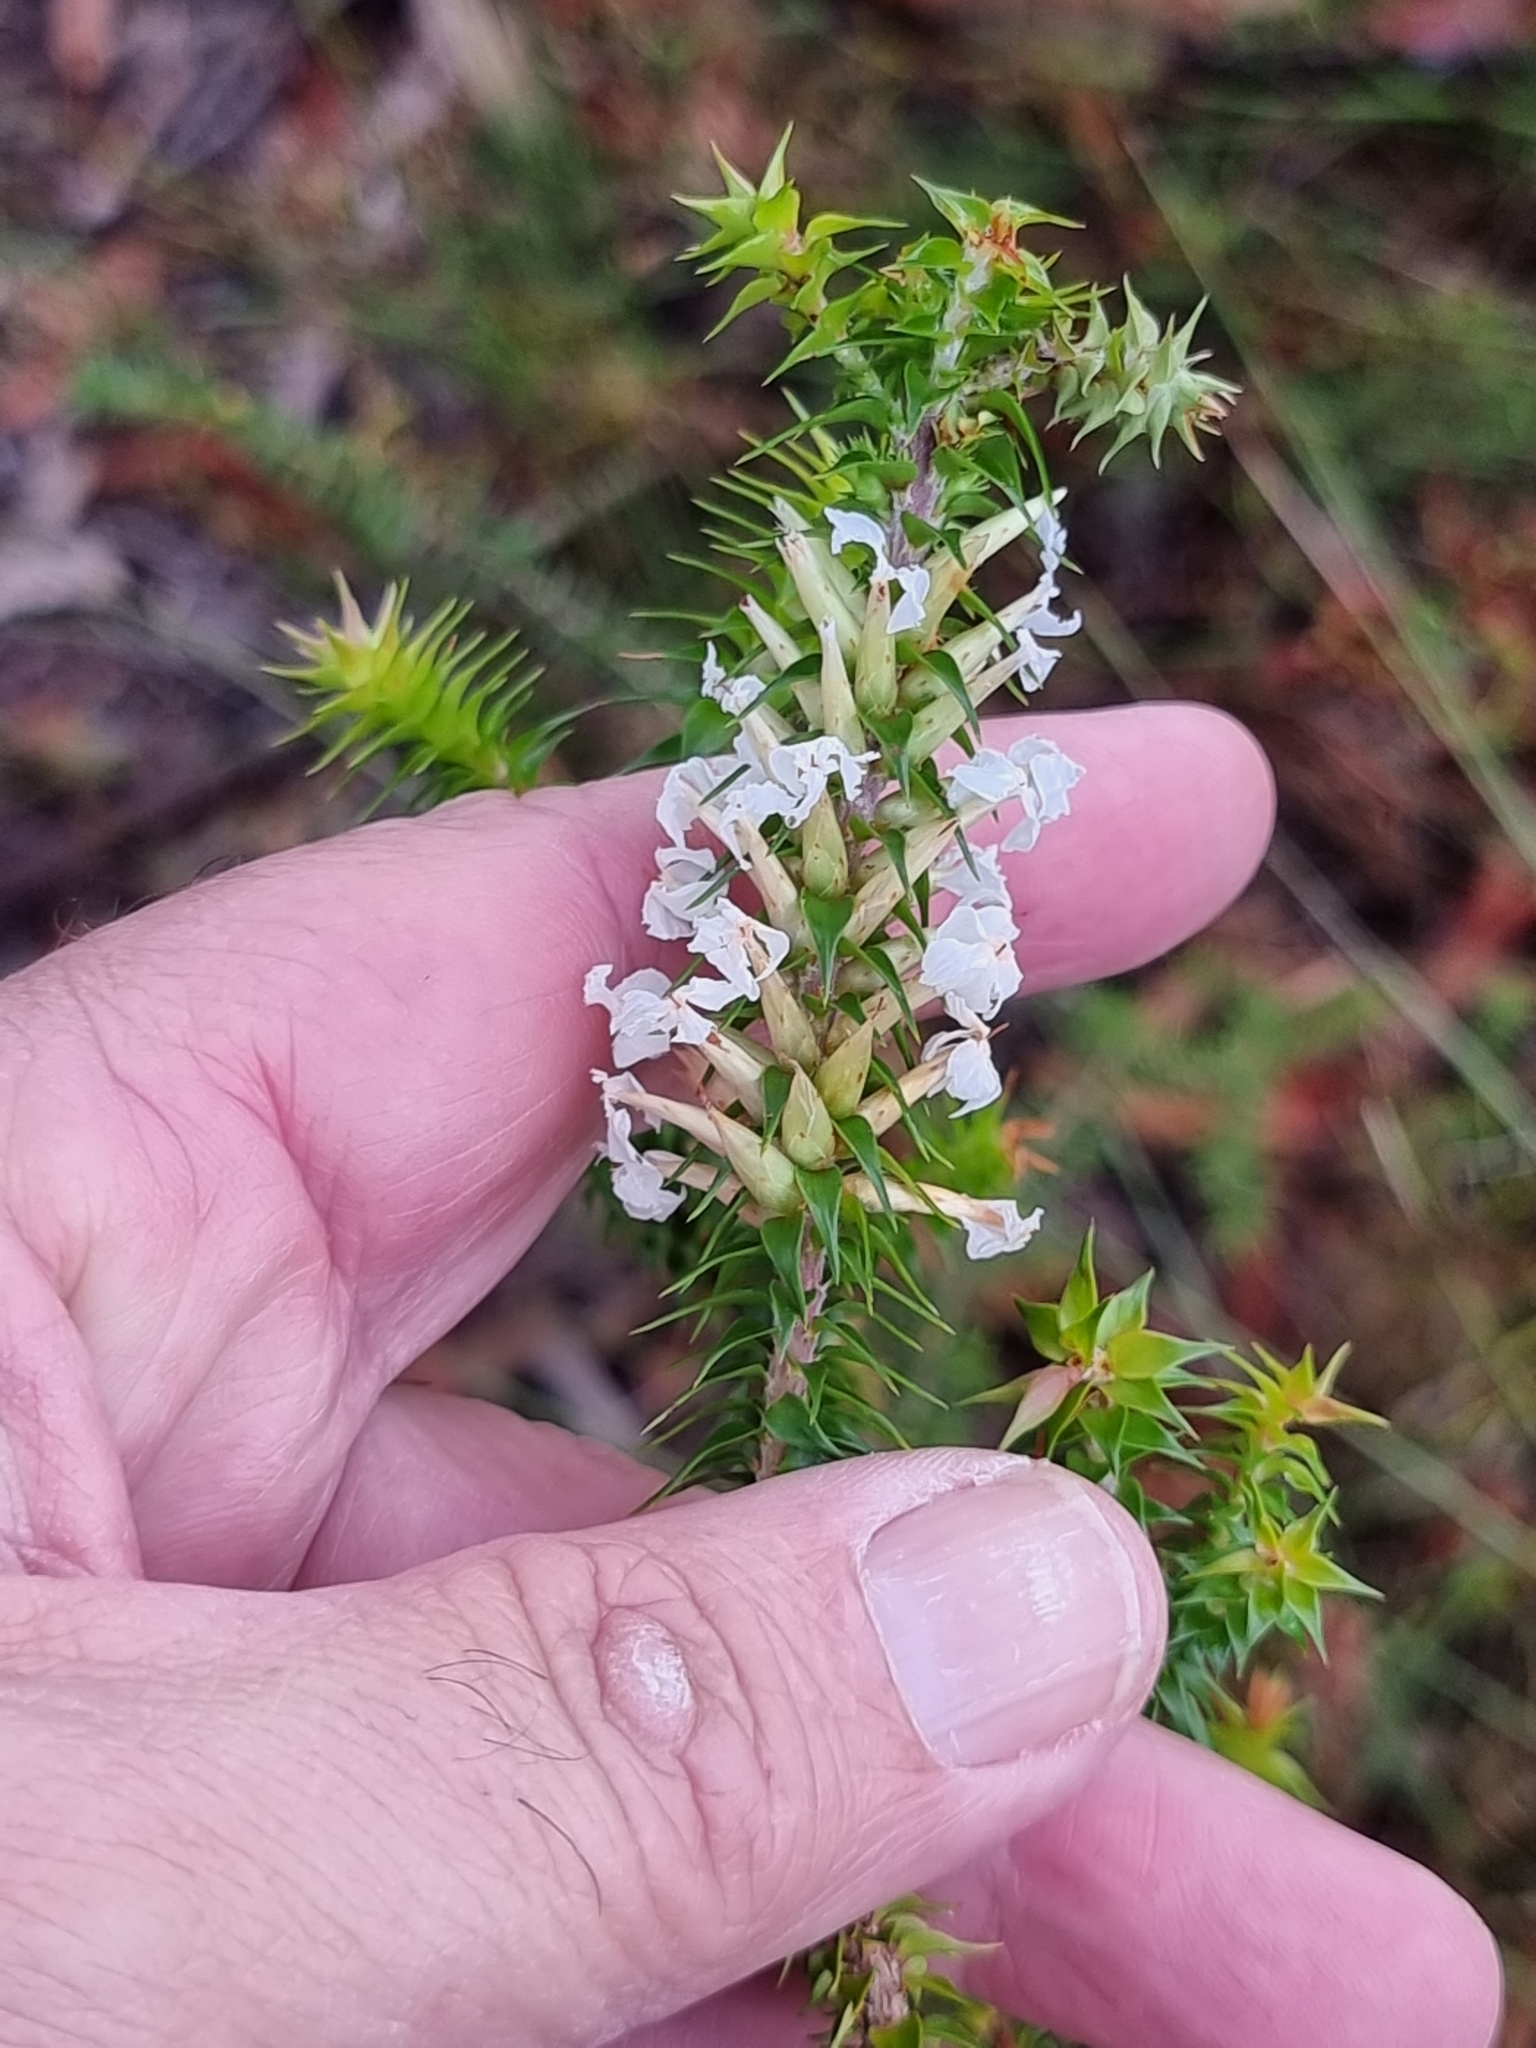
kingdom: Plantae
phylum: Tracheophyta
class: Magnoliopsida
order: Ericales
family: Ericaceae
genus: Woollsia
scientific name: Woollsia pungens
